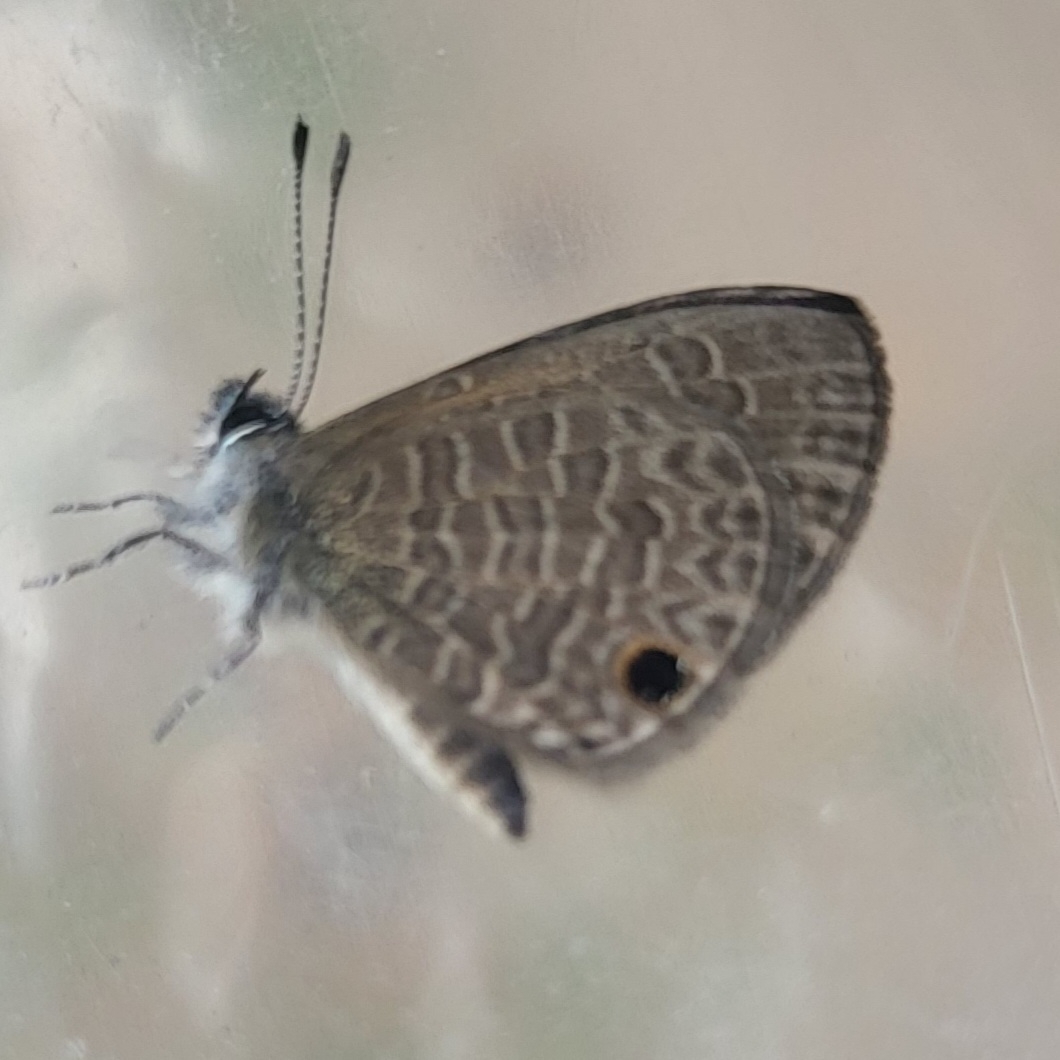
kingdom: Animalia
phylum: Arthropoda
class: Insecta
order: Lepidoptera
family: Lycaenidae
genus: Prosotas
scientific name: Prosotas dubiosa
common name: Tailless lineblue
